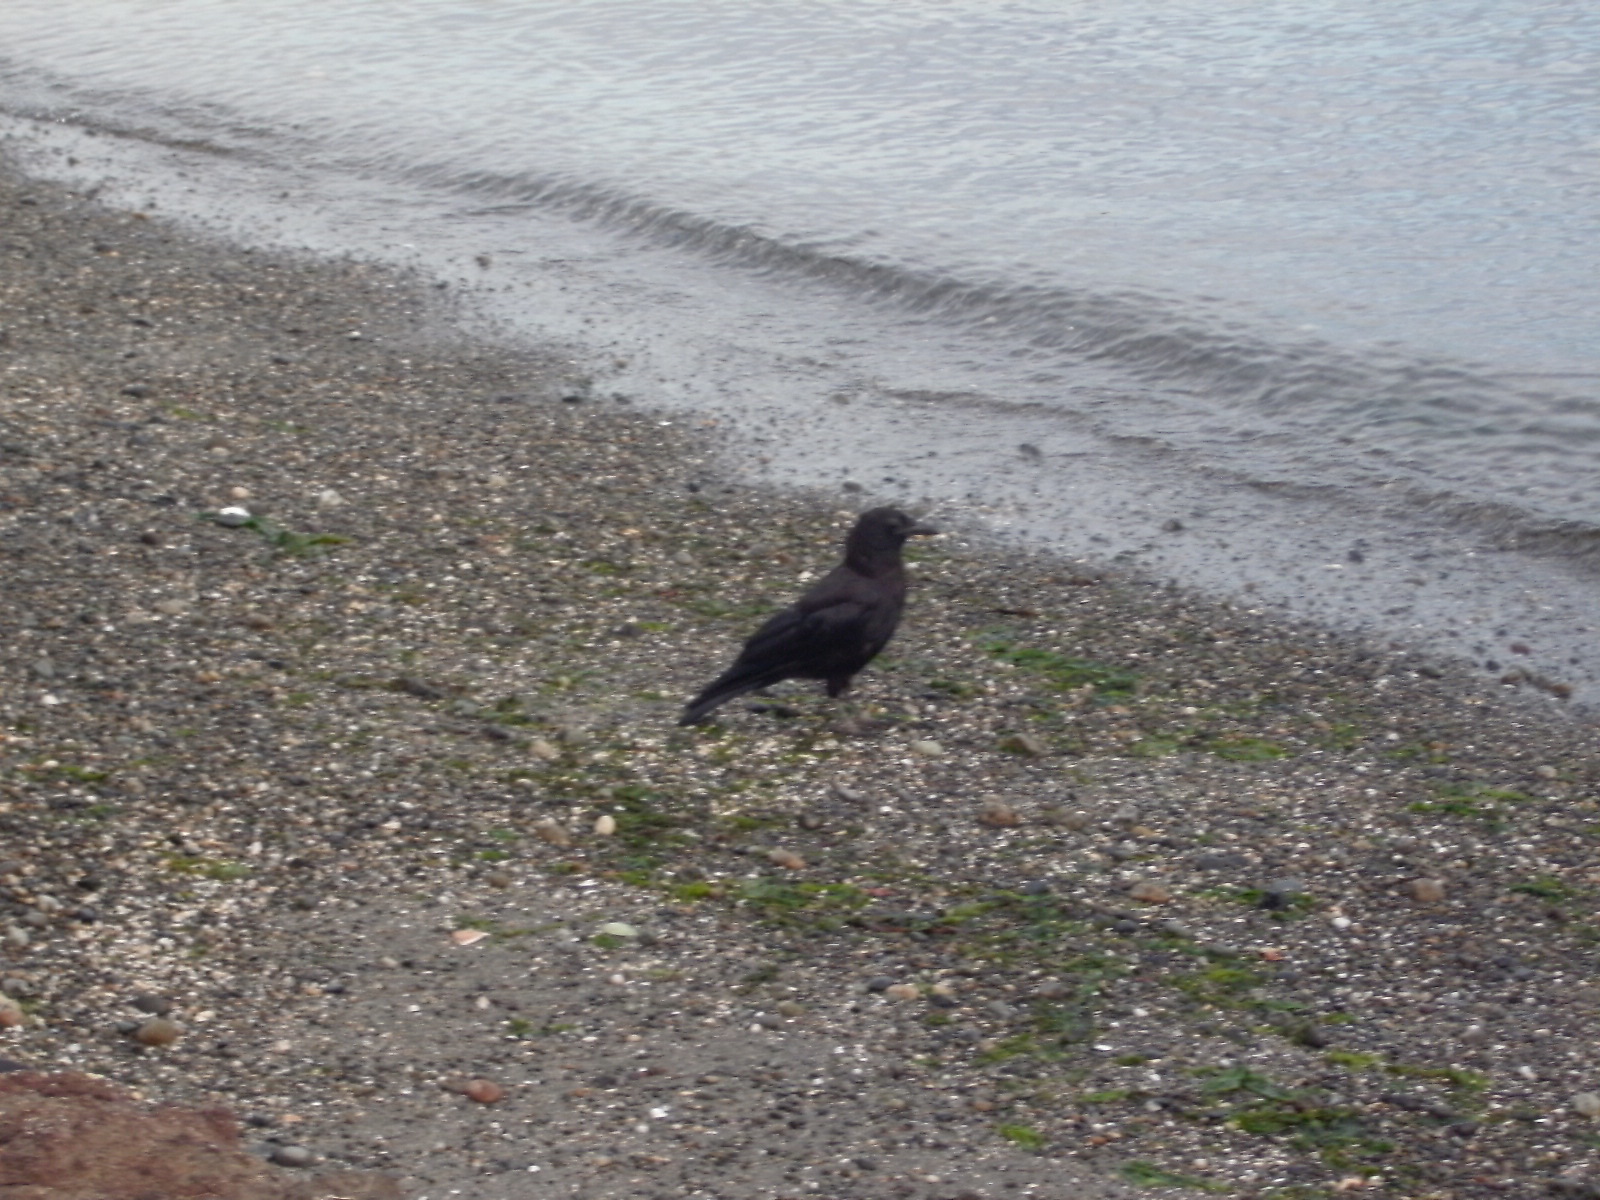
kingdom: Animalia
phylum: Chordata
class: Aves
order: Passeriformes
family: Corvidae
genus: Corvus
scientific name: Corvus brachyrhynchos
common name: American crow
